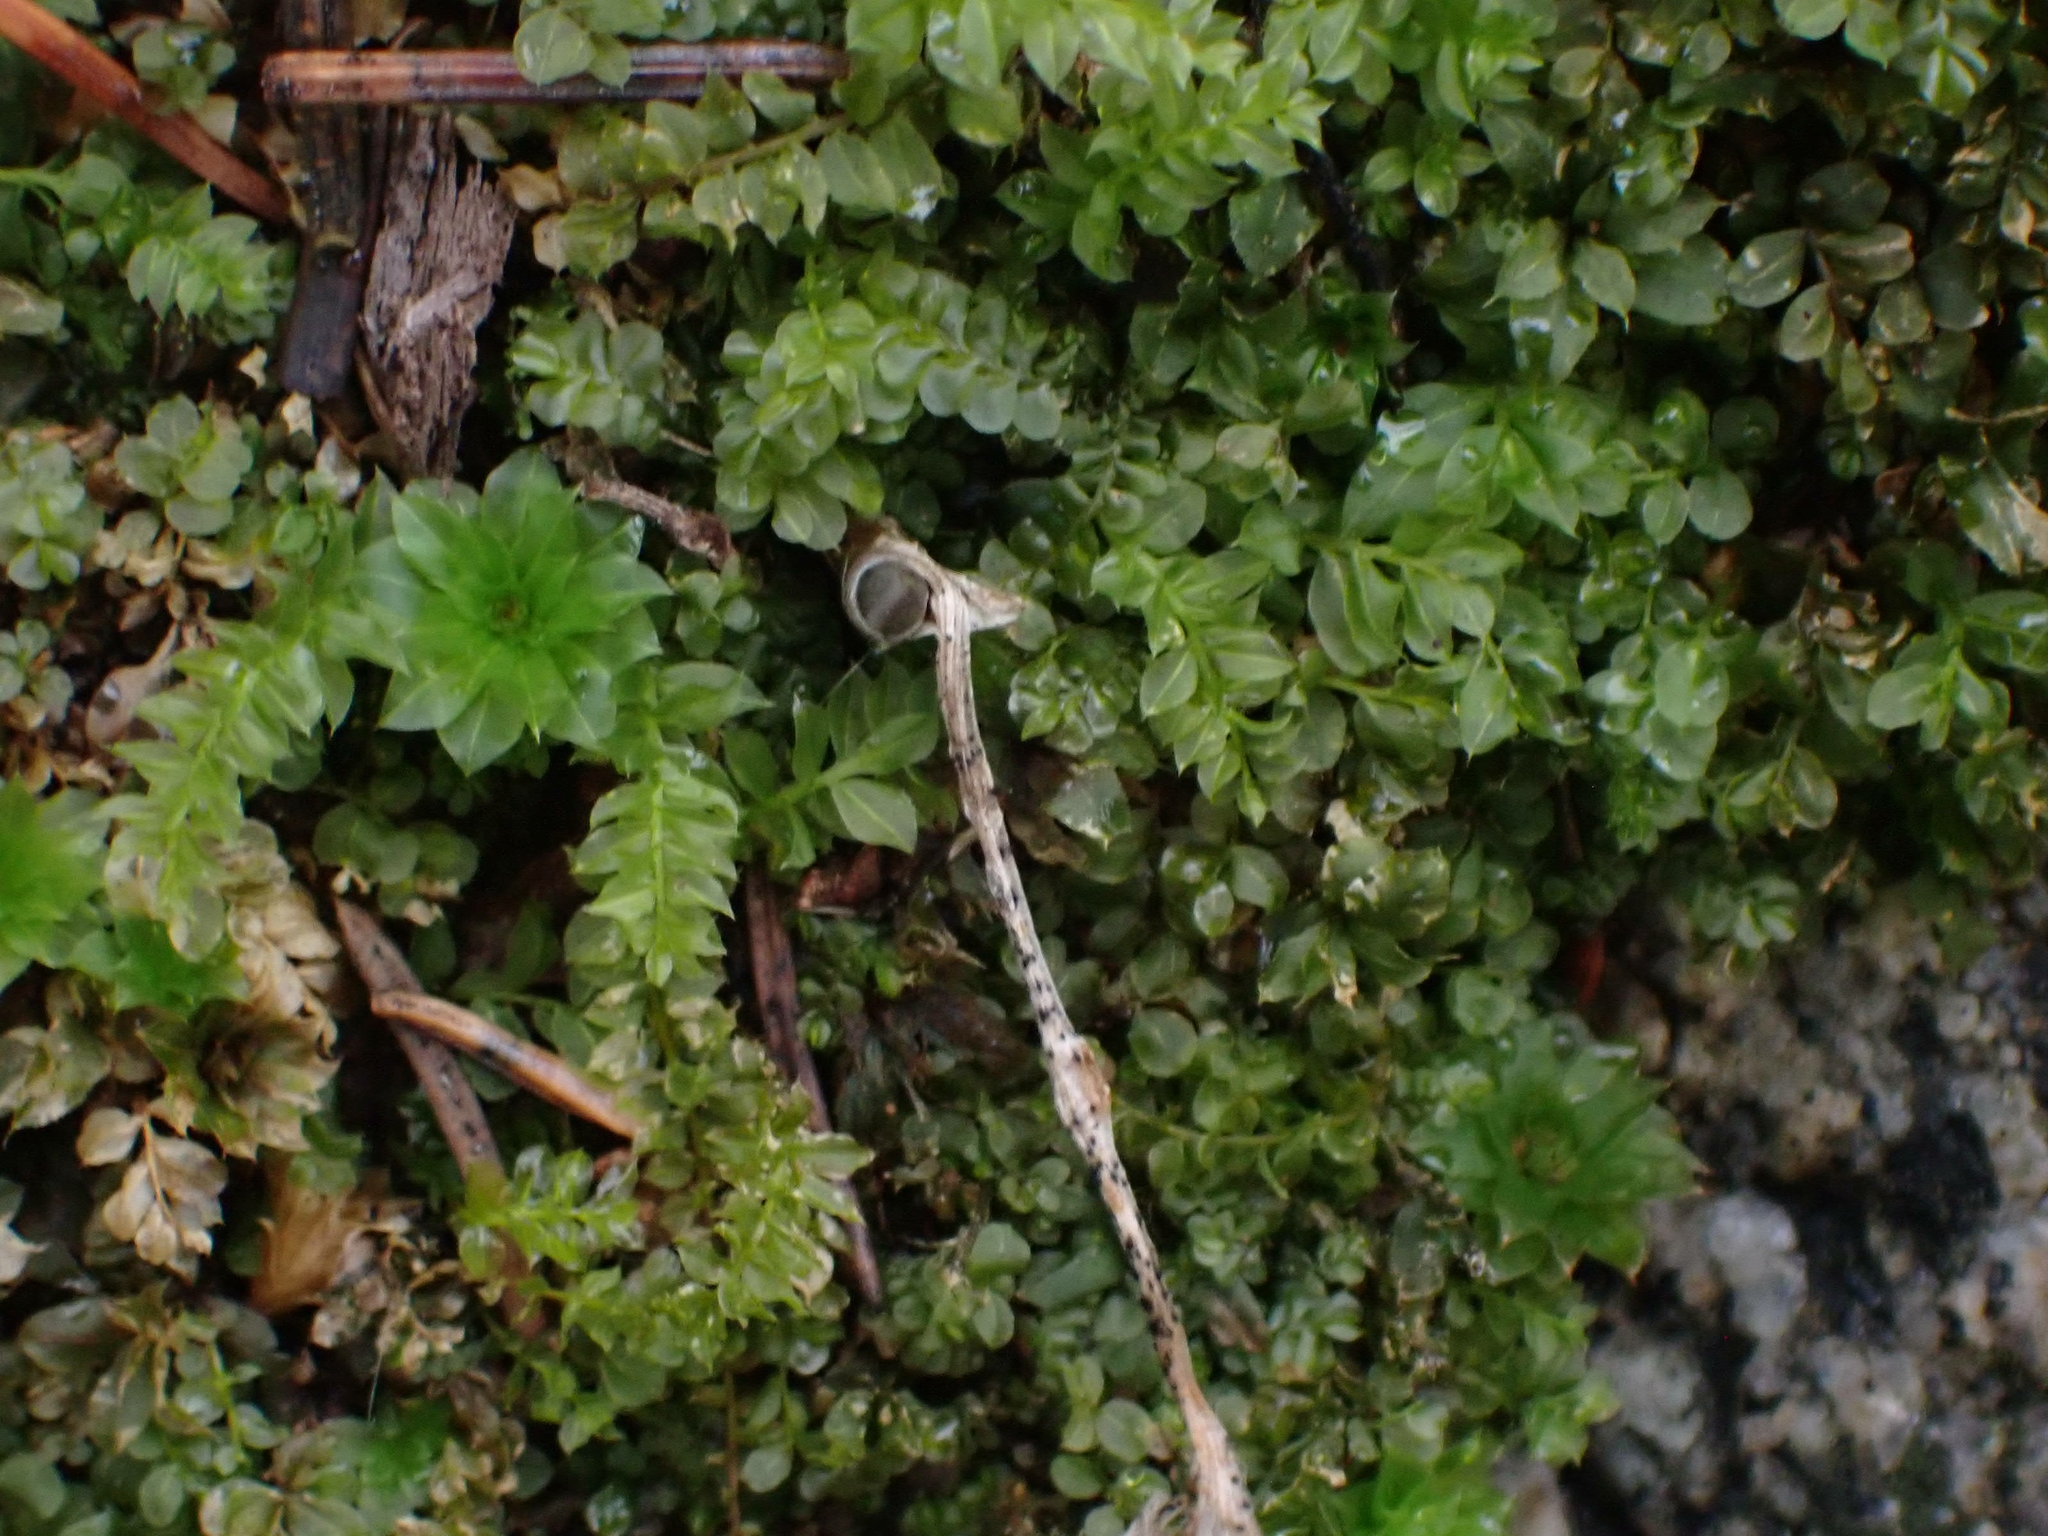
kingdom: Plantae
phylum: Bryophyta
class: Bryopsida
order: Bryales
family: Bryaceae
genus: Rhodobryum
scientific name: Rhodobryum ontariense
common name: Ontario rhodobryum moss
